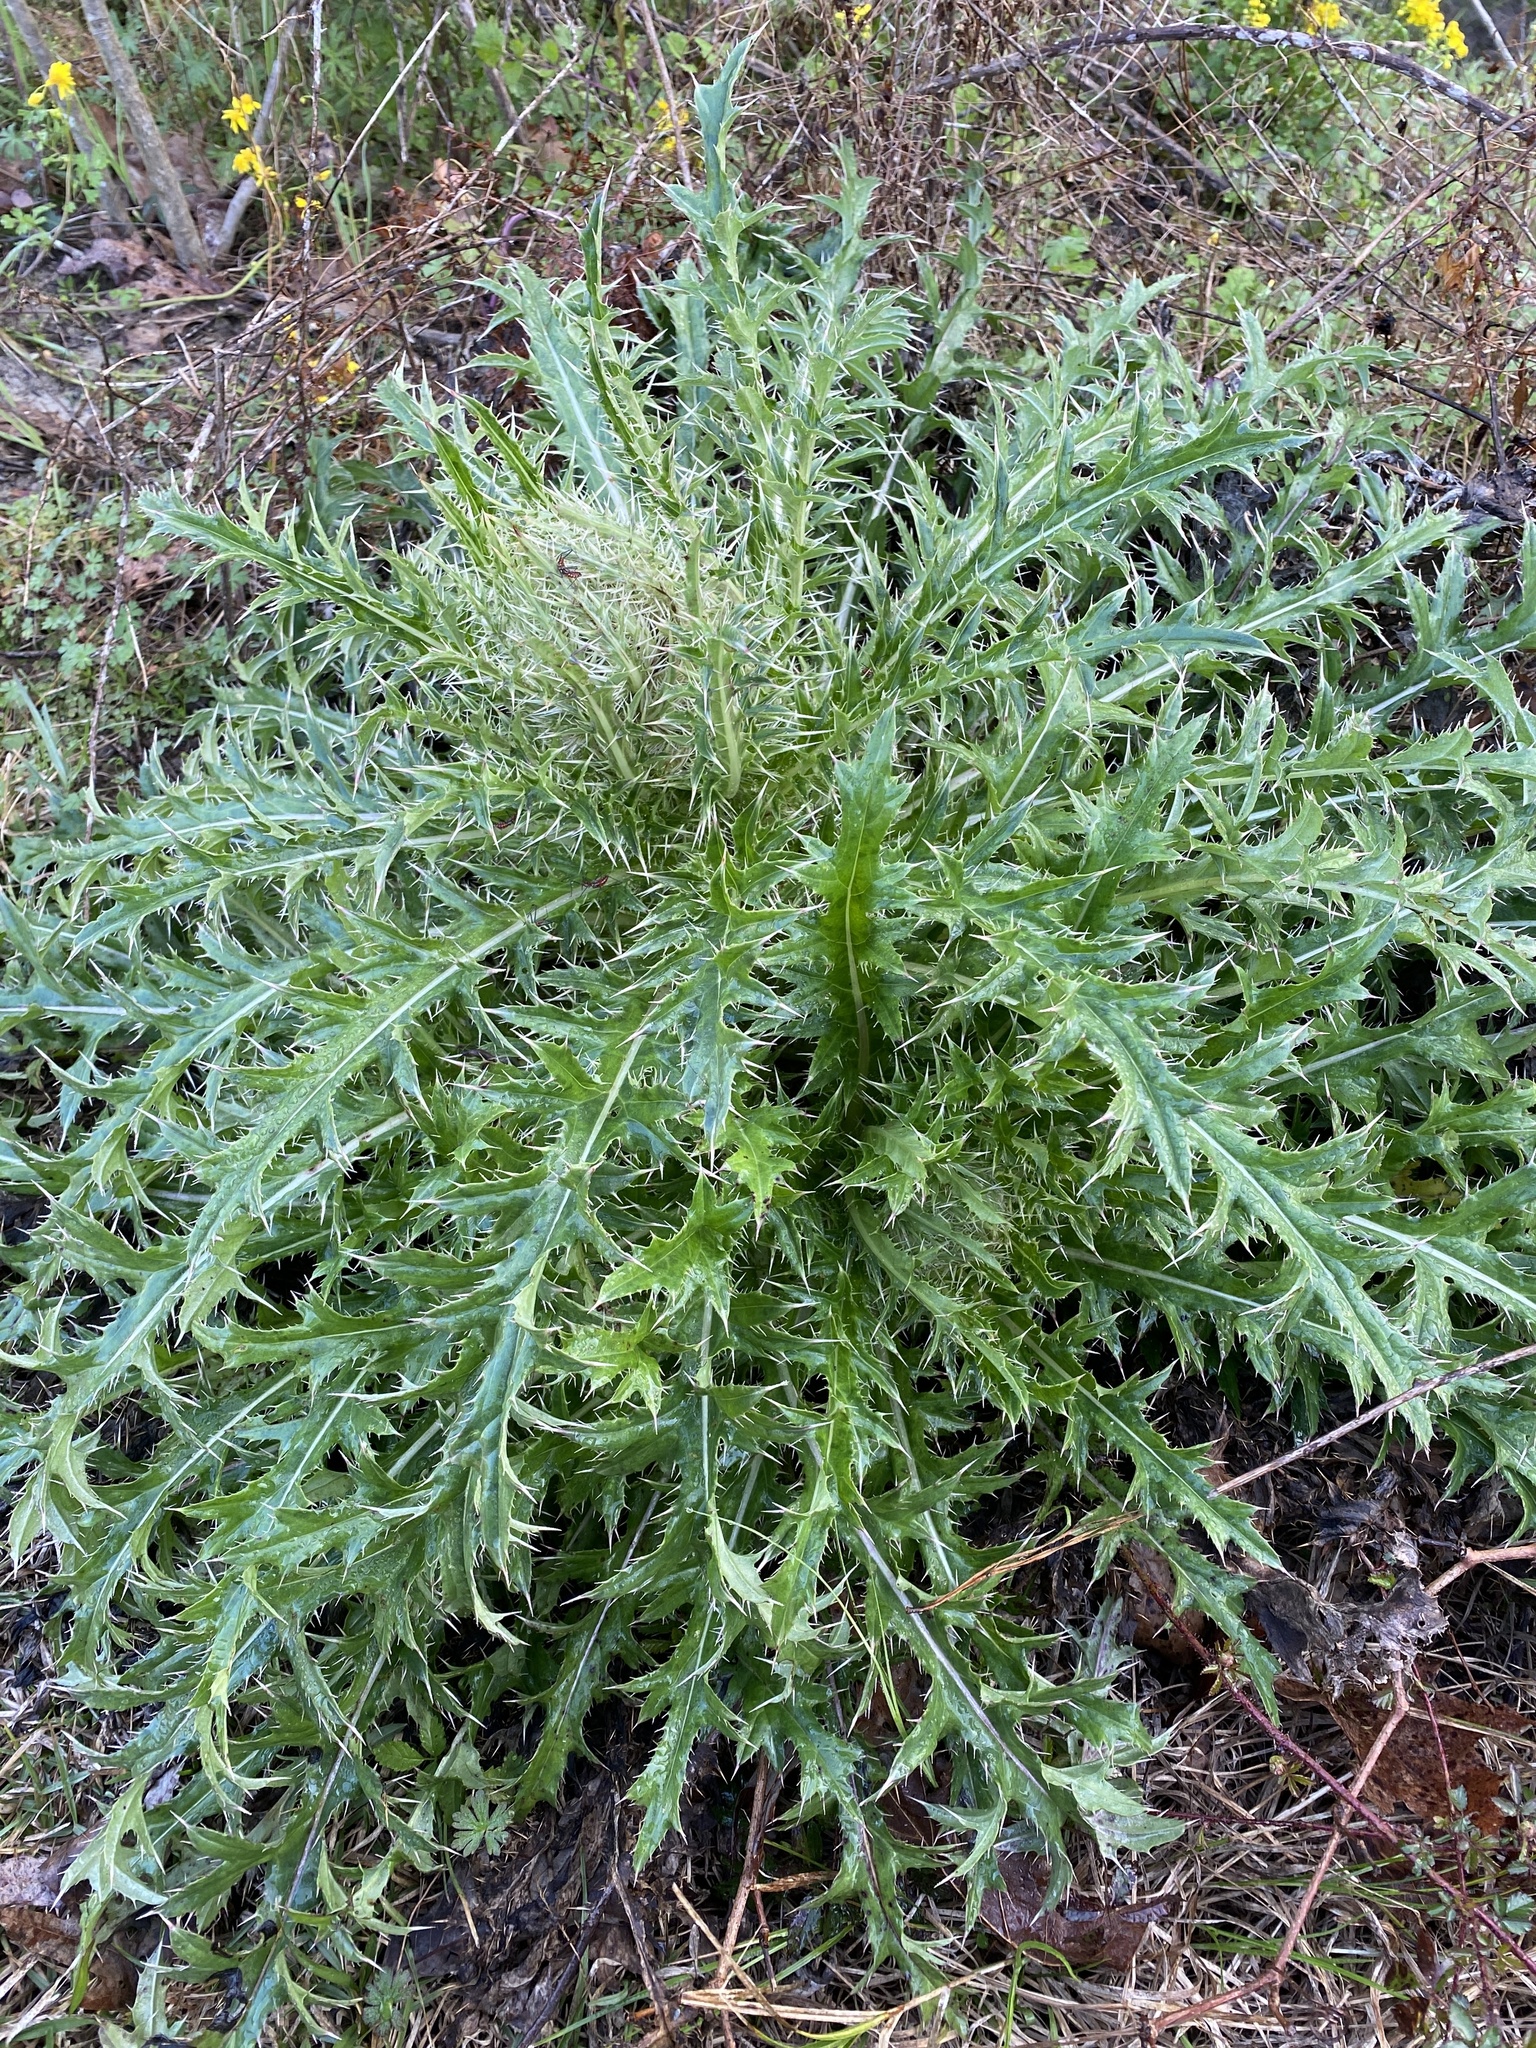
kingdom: Plantae
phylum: Tracheophyta
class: Magnoliopsida
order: Asterales
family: Asteraceae
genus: Cirsium
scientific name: Cirsium horridulum
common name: Bristly thistle
